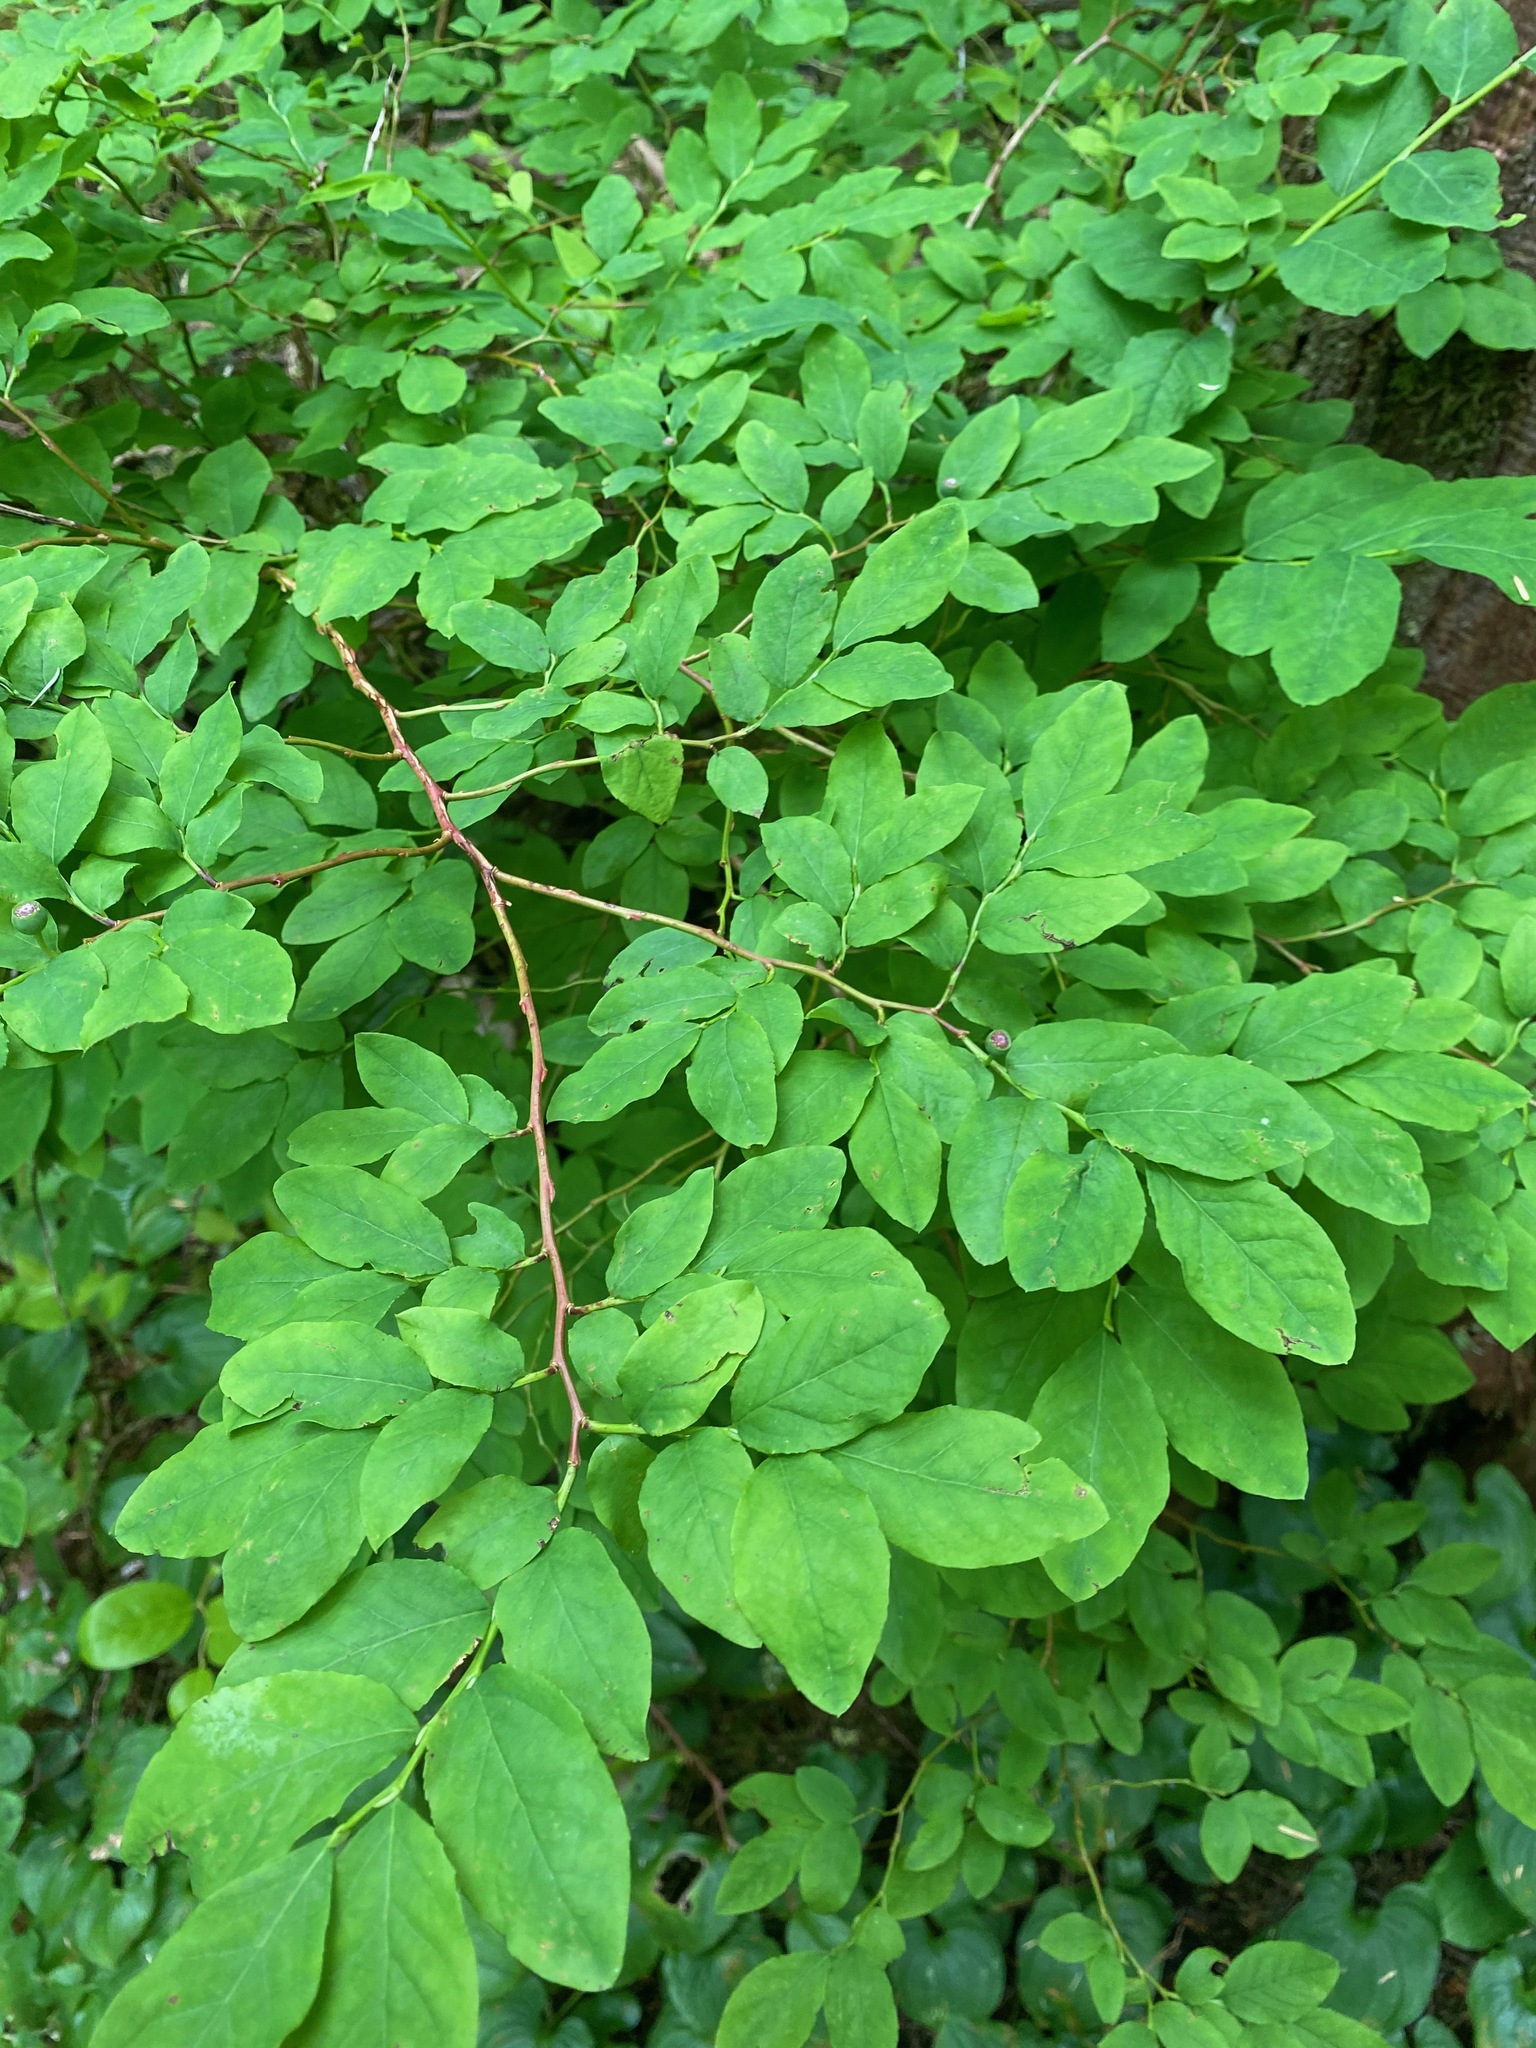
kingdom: Plantae
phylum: Tracheophyta
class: Magnoliopsida
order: Ericales
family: Ericaceae
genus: Vaccinium
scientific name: Vaccinium ovalifolium
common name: Early blueberry
